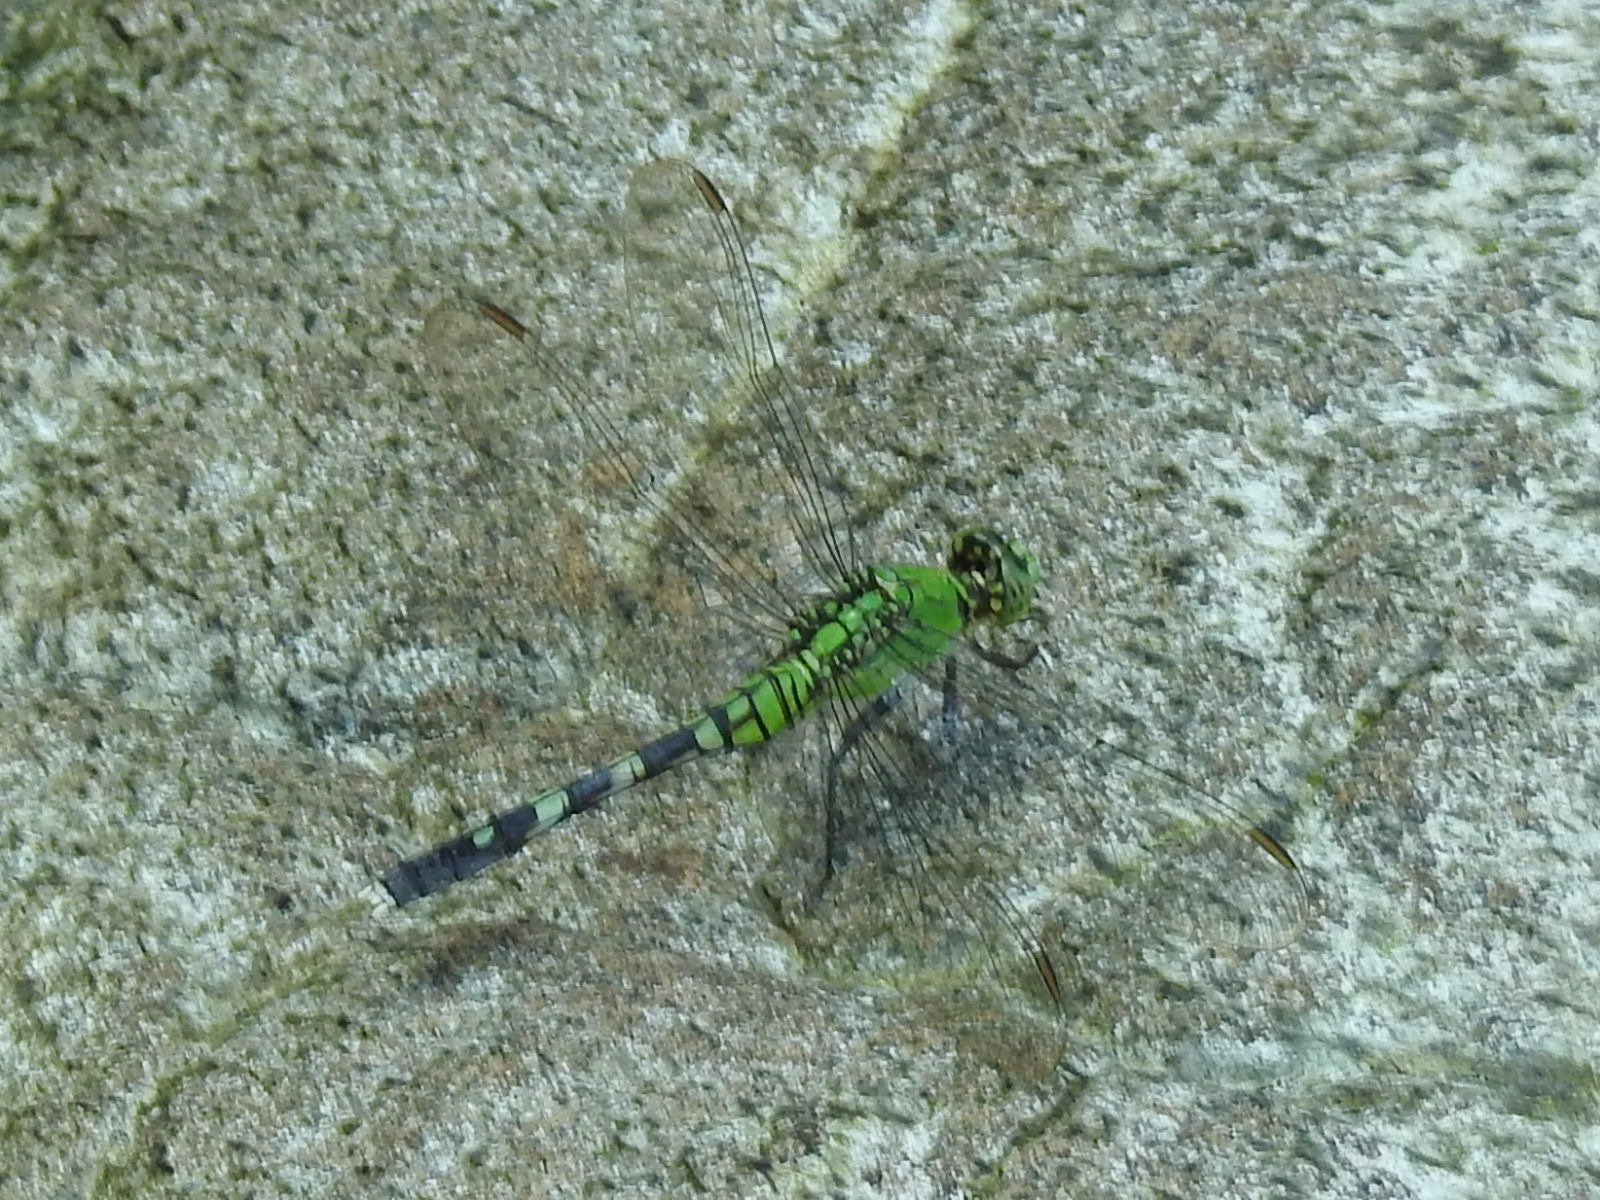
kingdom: Animalia
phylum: Arthropoda
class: Insecta
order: Odonata
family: Libellulidae
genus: Erythemis
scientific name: Erythemis simplicicollis
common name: Eastern pondhawk
